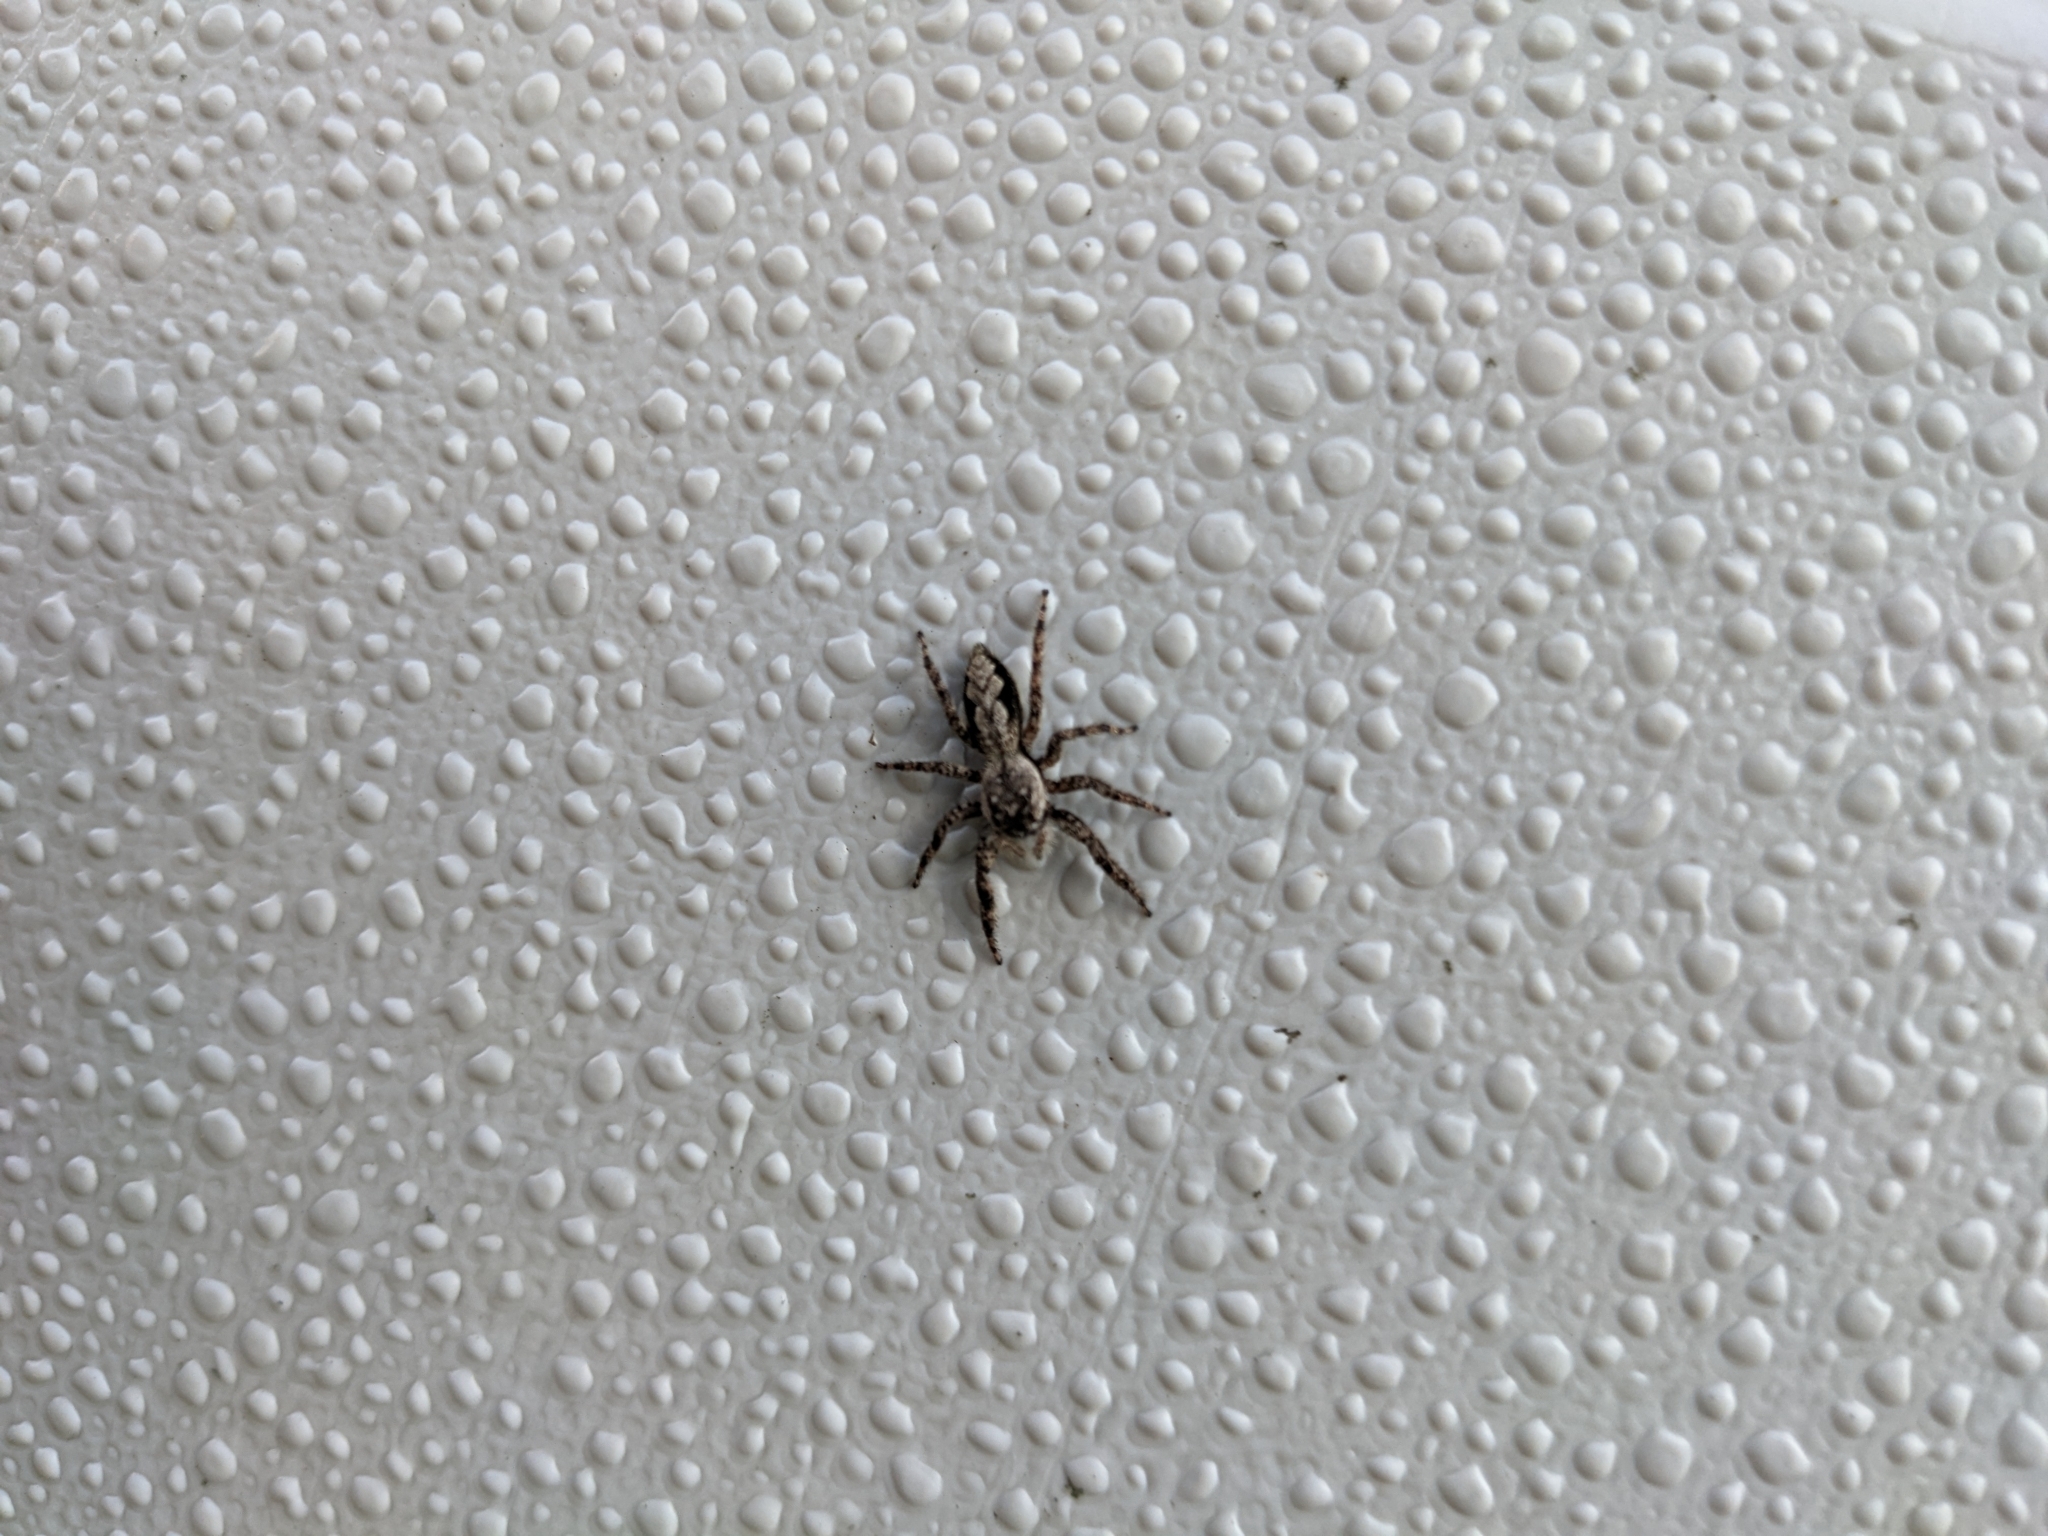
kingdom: Animalia
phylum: Arthropoda
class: Arachnida
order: Araneae
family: Salticidae
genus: Platycryptus
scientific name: Platycryptus undatus
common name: Tan jumping spider
